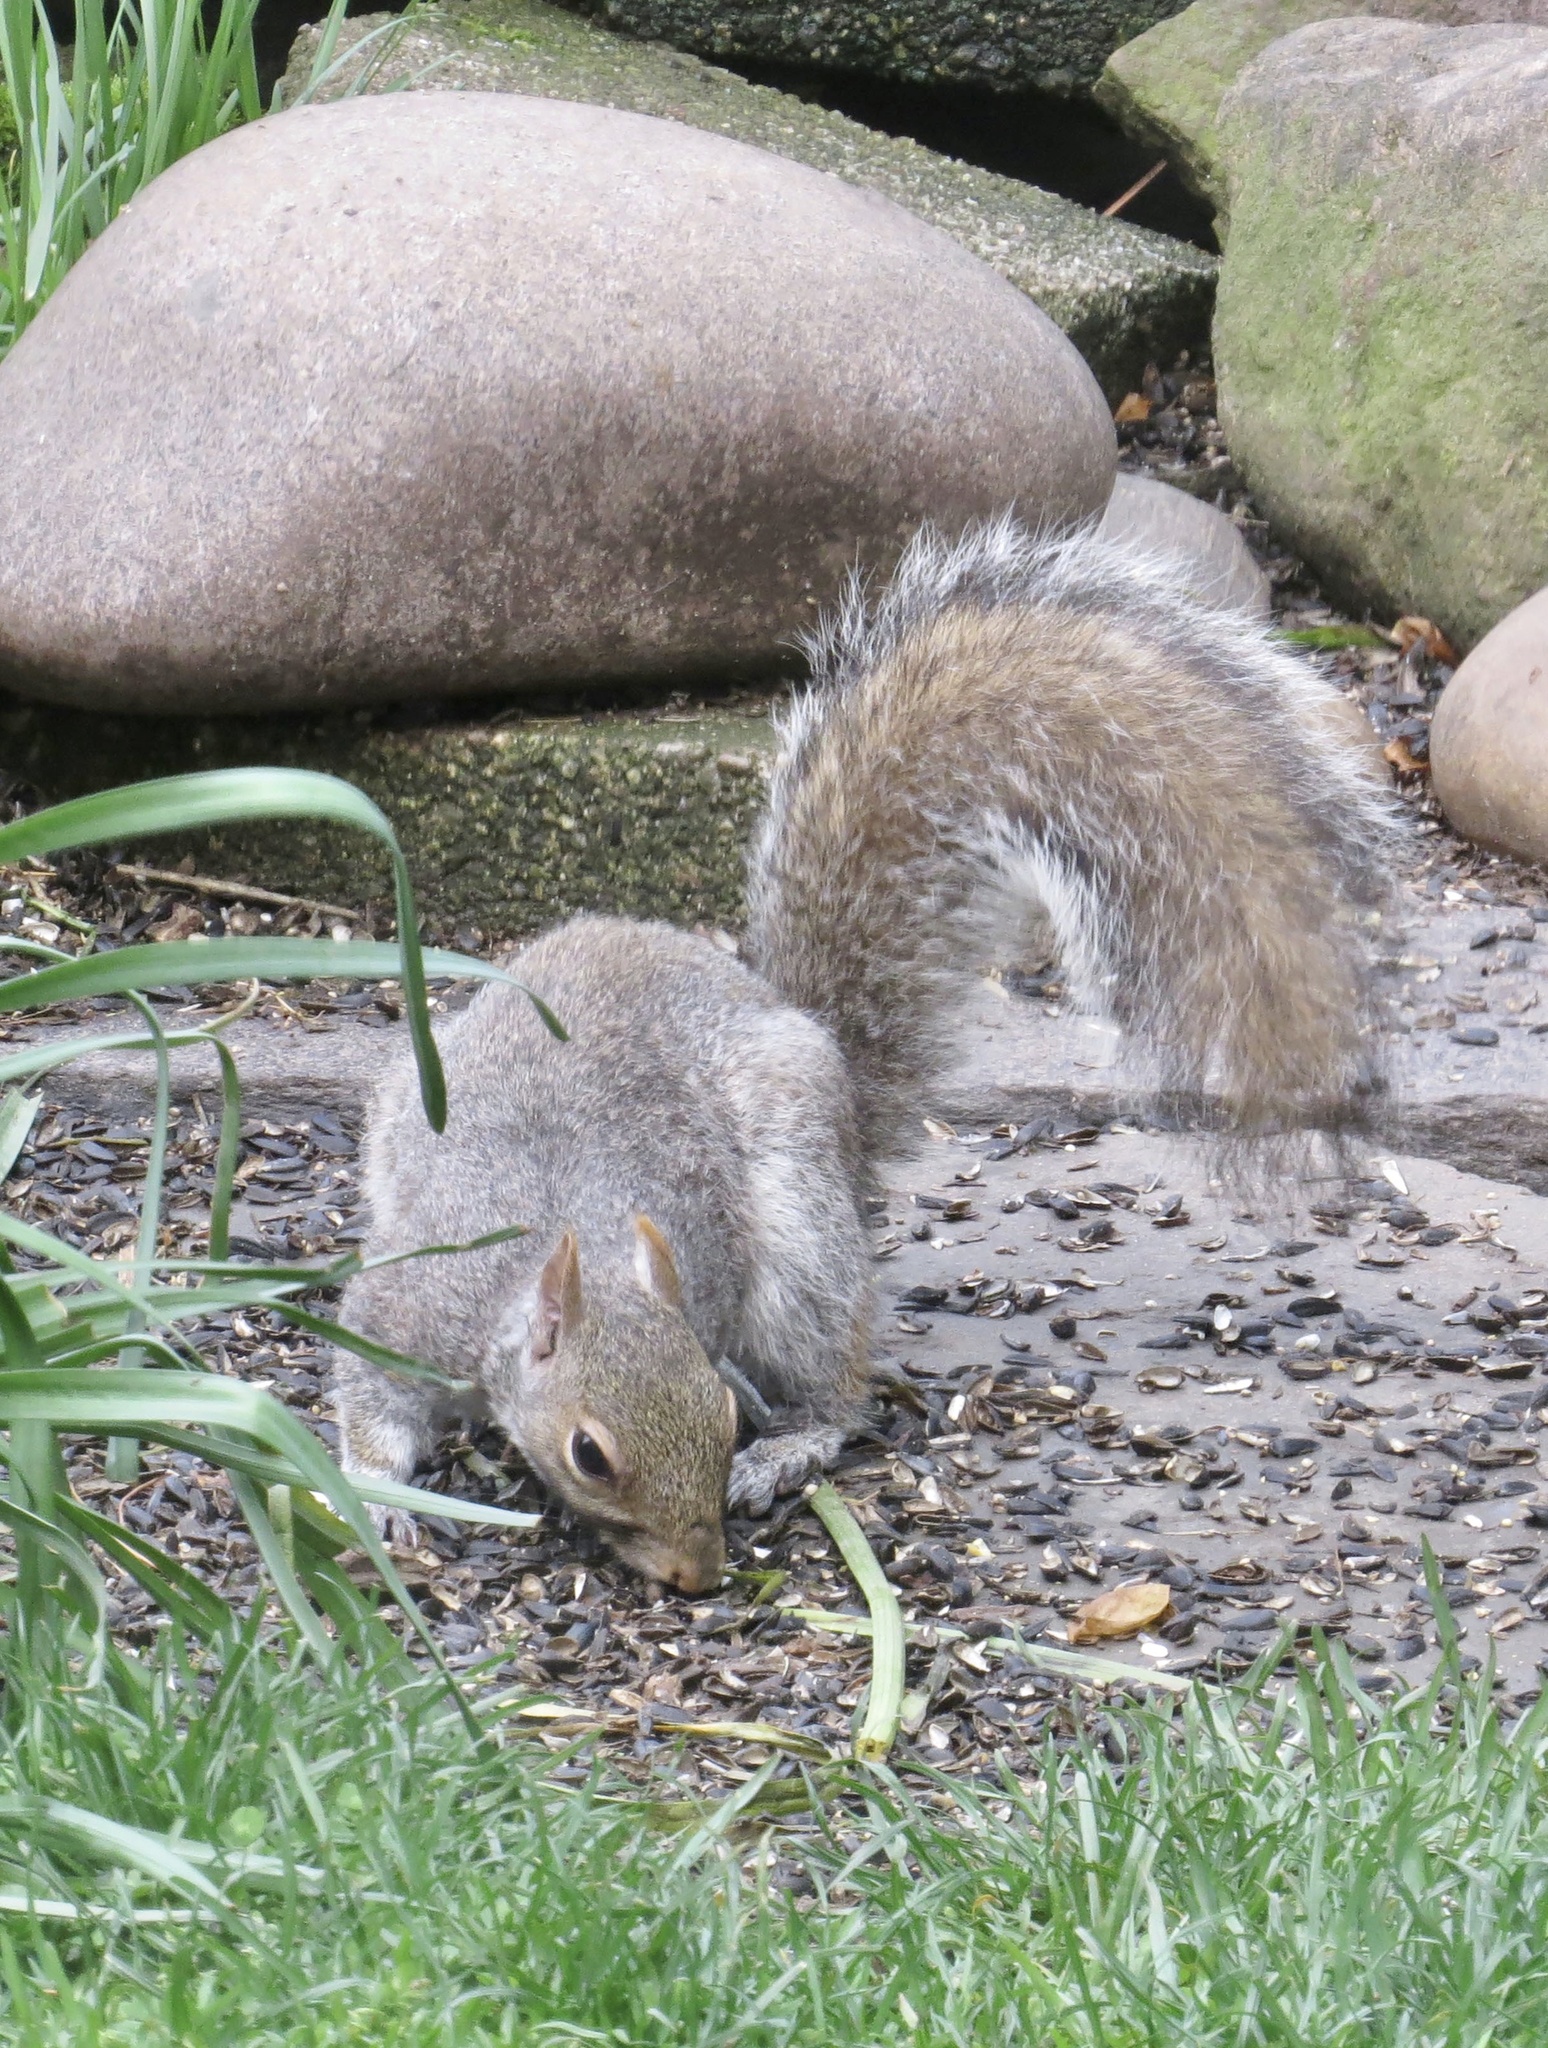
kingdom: Animalia
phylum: Chordata
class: Mammalia
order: Rodentia
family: Sciuridae
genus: Sciurus
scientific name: Sciurus carolinensis
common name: Eastern gray squirrel
